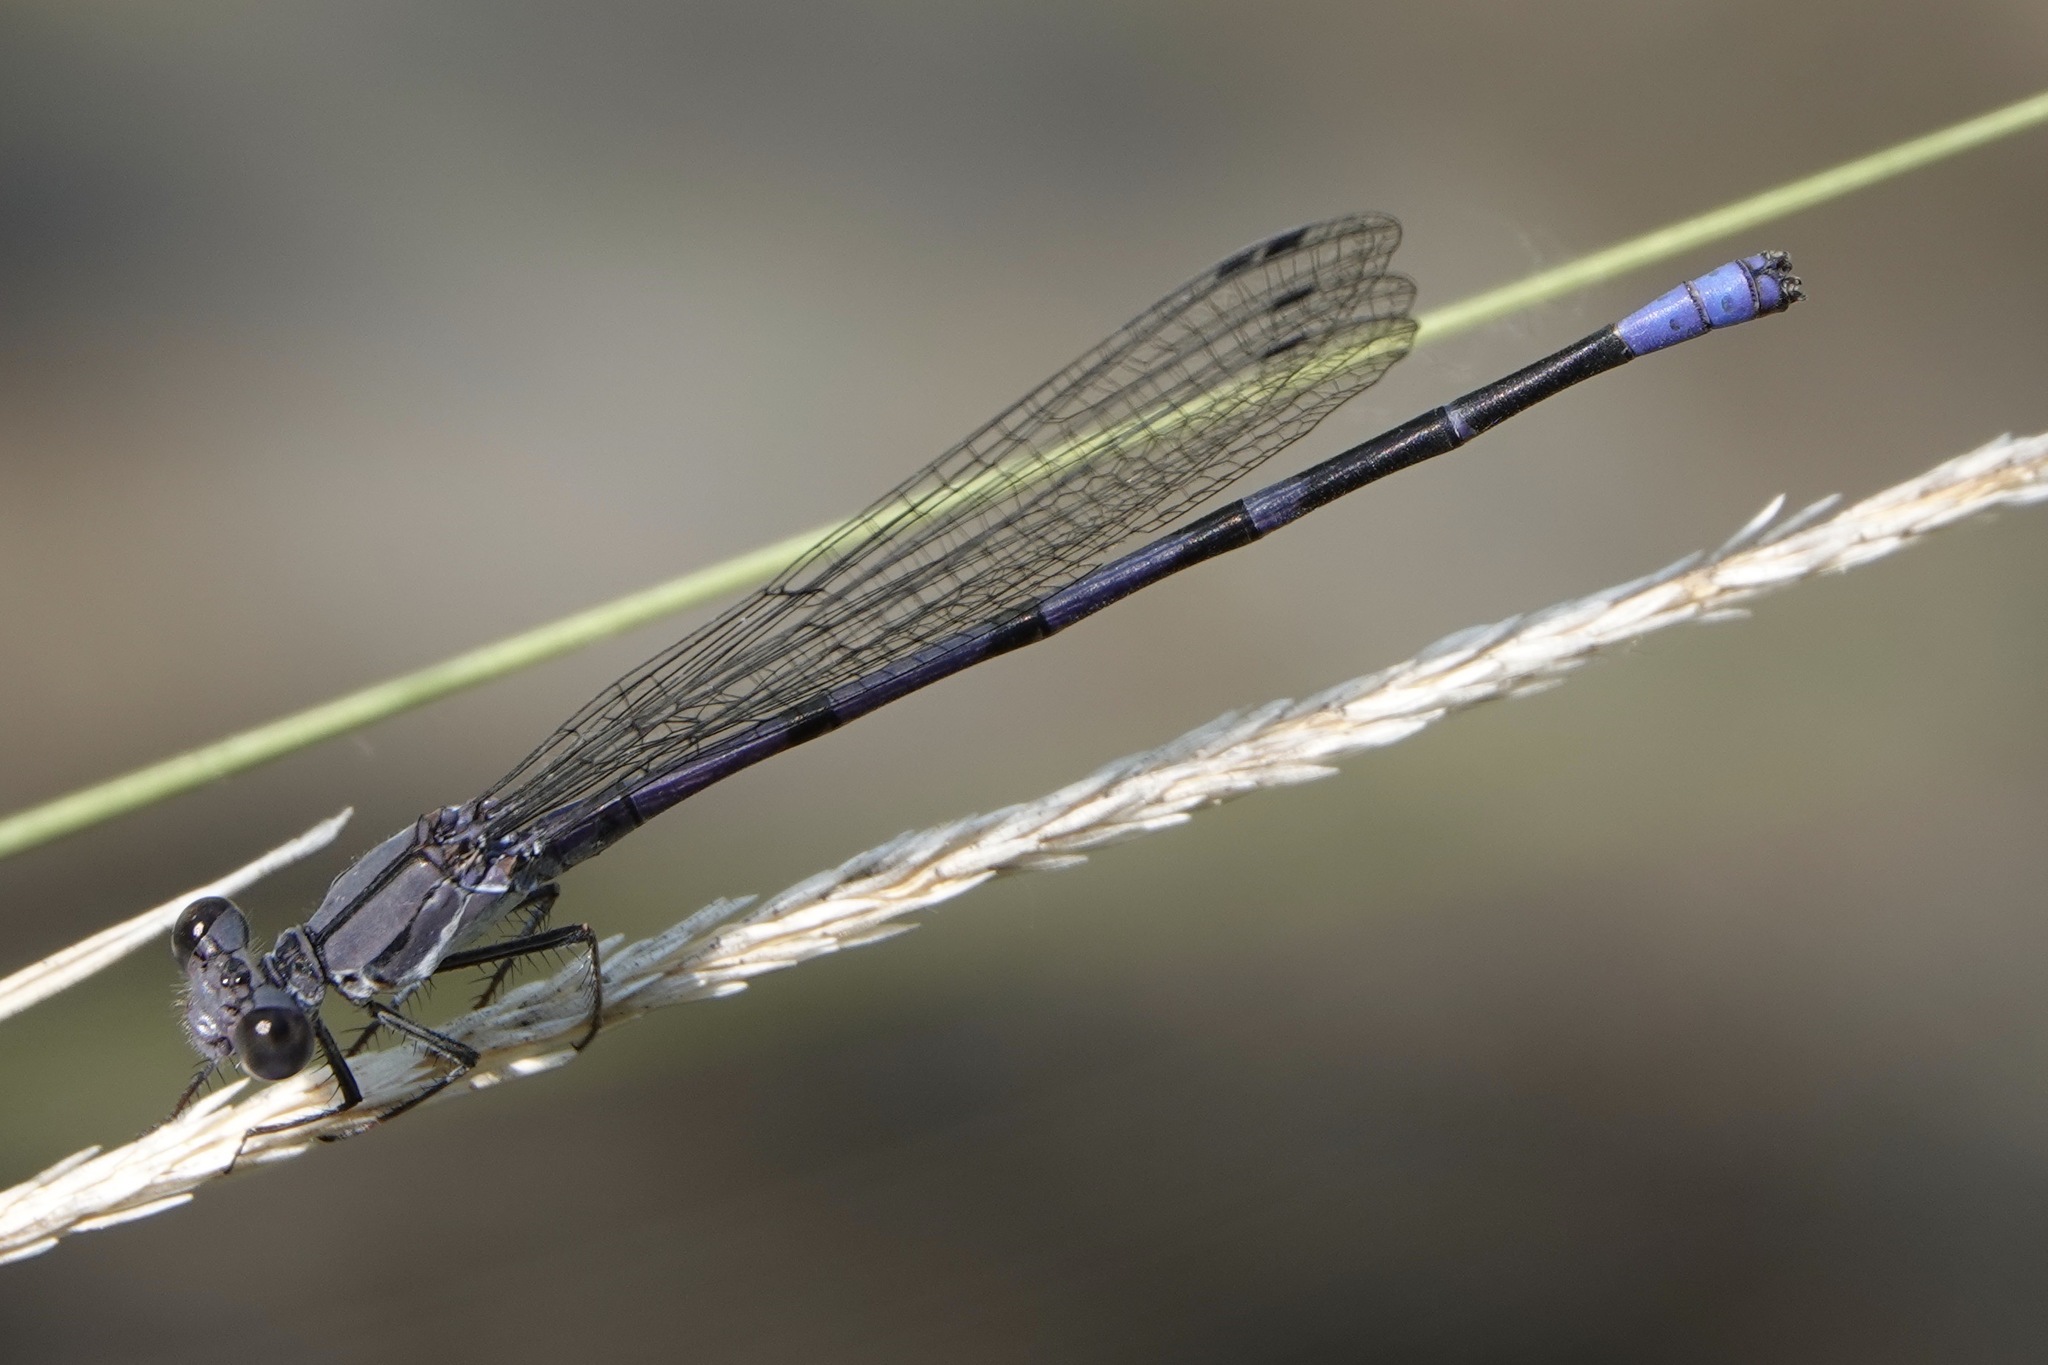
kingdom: Animalia
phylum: Arthropoda
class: Insecta
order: Odonata
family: Coenagrionidae
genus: Argia
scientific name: Argia emma
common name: Emma's dancer
